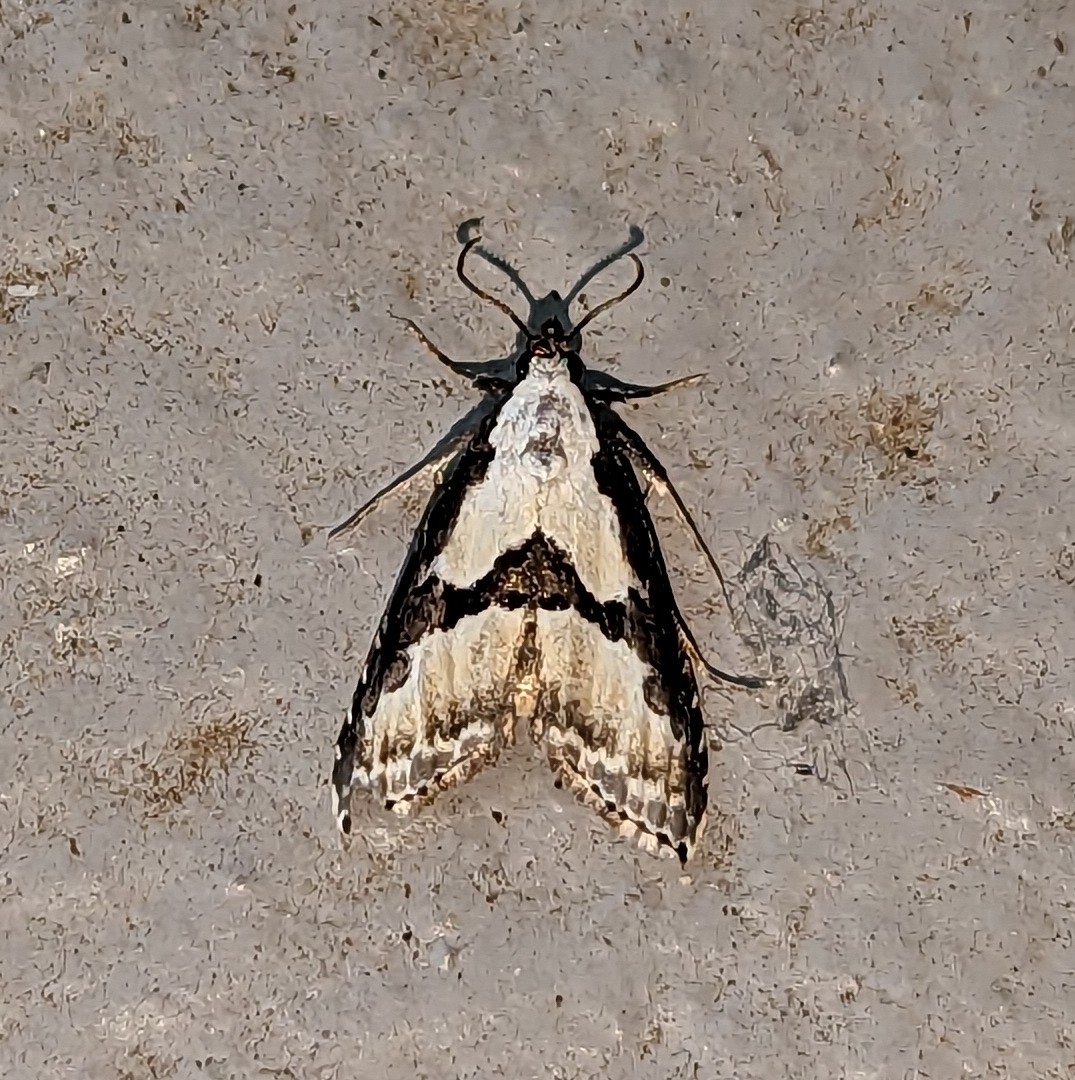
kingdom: Animalia
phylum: Arthropoda
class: Insecta
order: Lepidoptera
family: Noctuidae
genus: Nigetia
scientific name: Nigetia formosalis
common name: Thin-winged owlet
